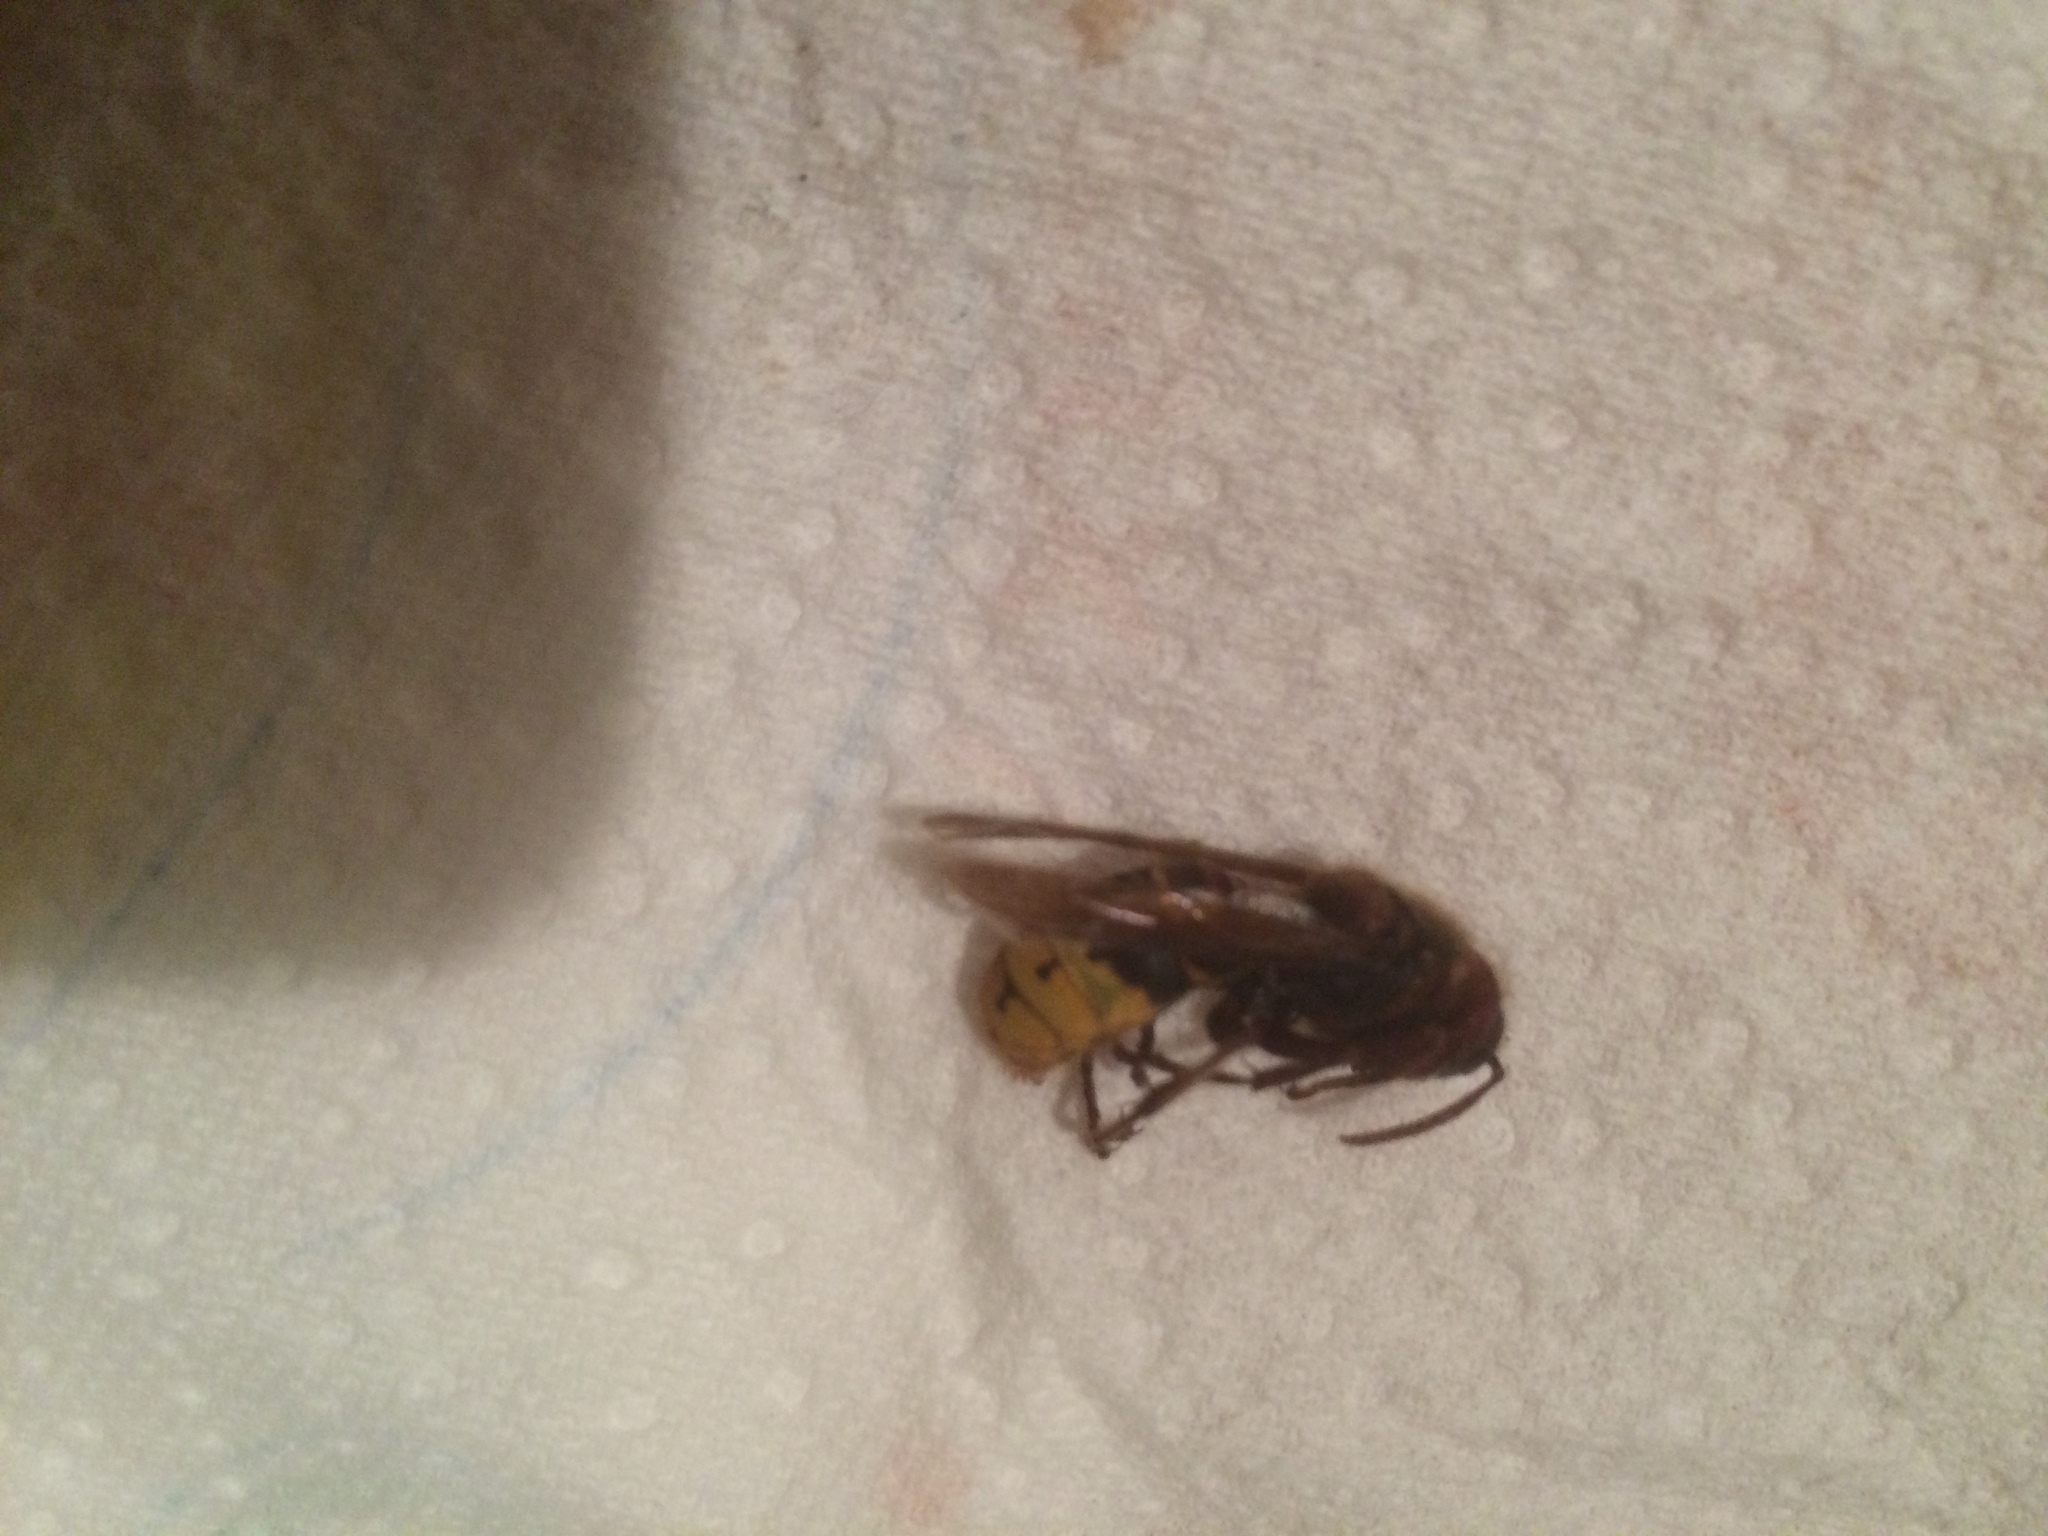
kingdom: Animalia
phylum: Arthropoda
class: Insecta
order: Hymenoptera
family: Vespidae
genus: Vespa
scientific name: Vespa crabro
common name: Hornet
